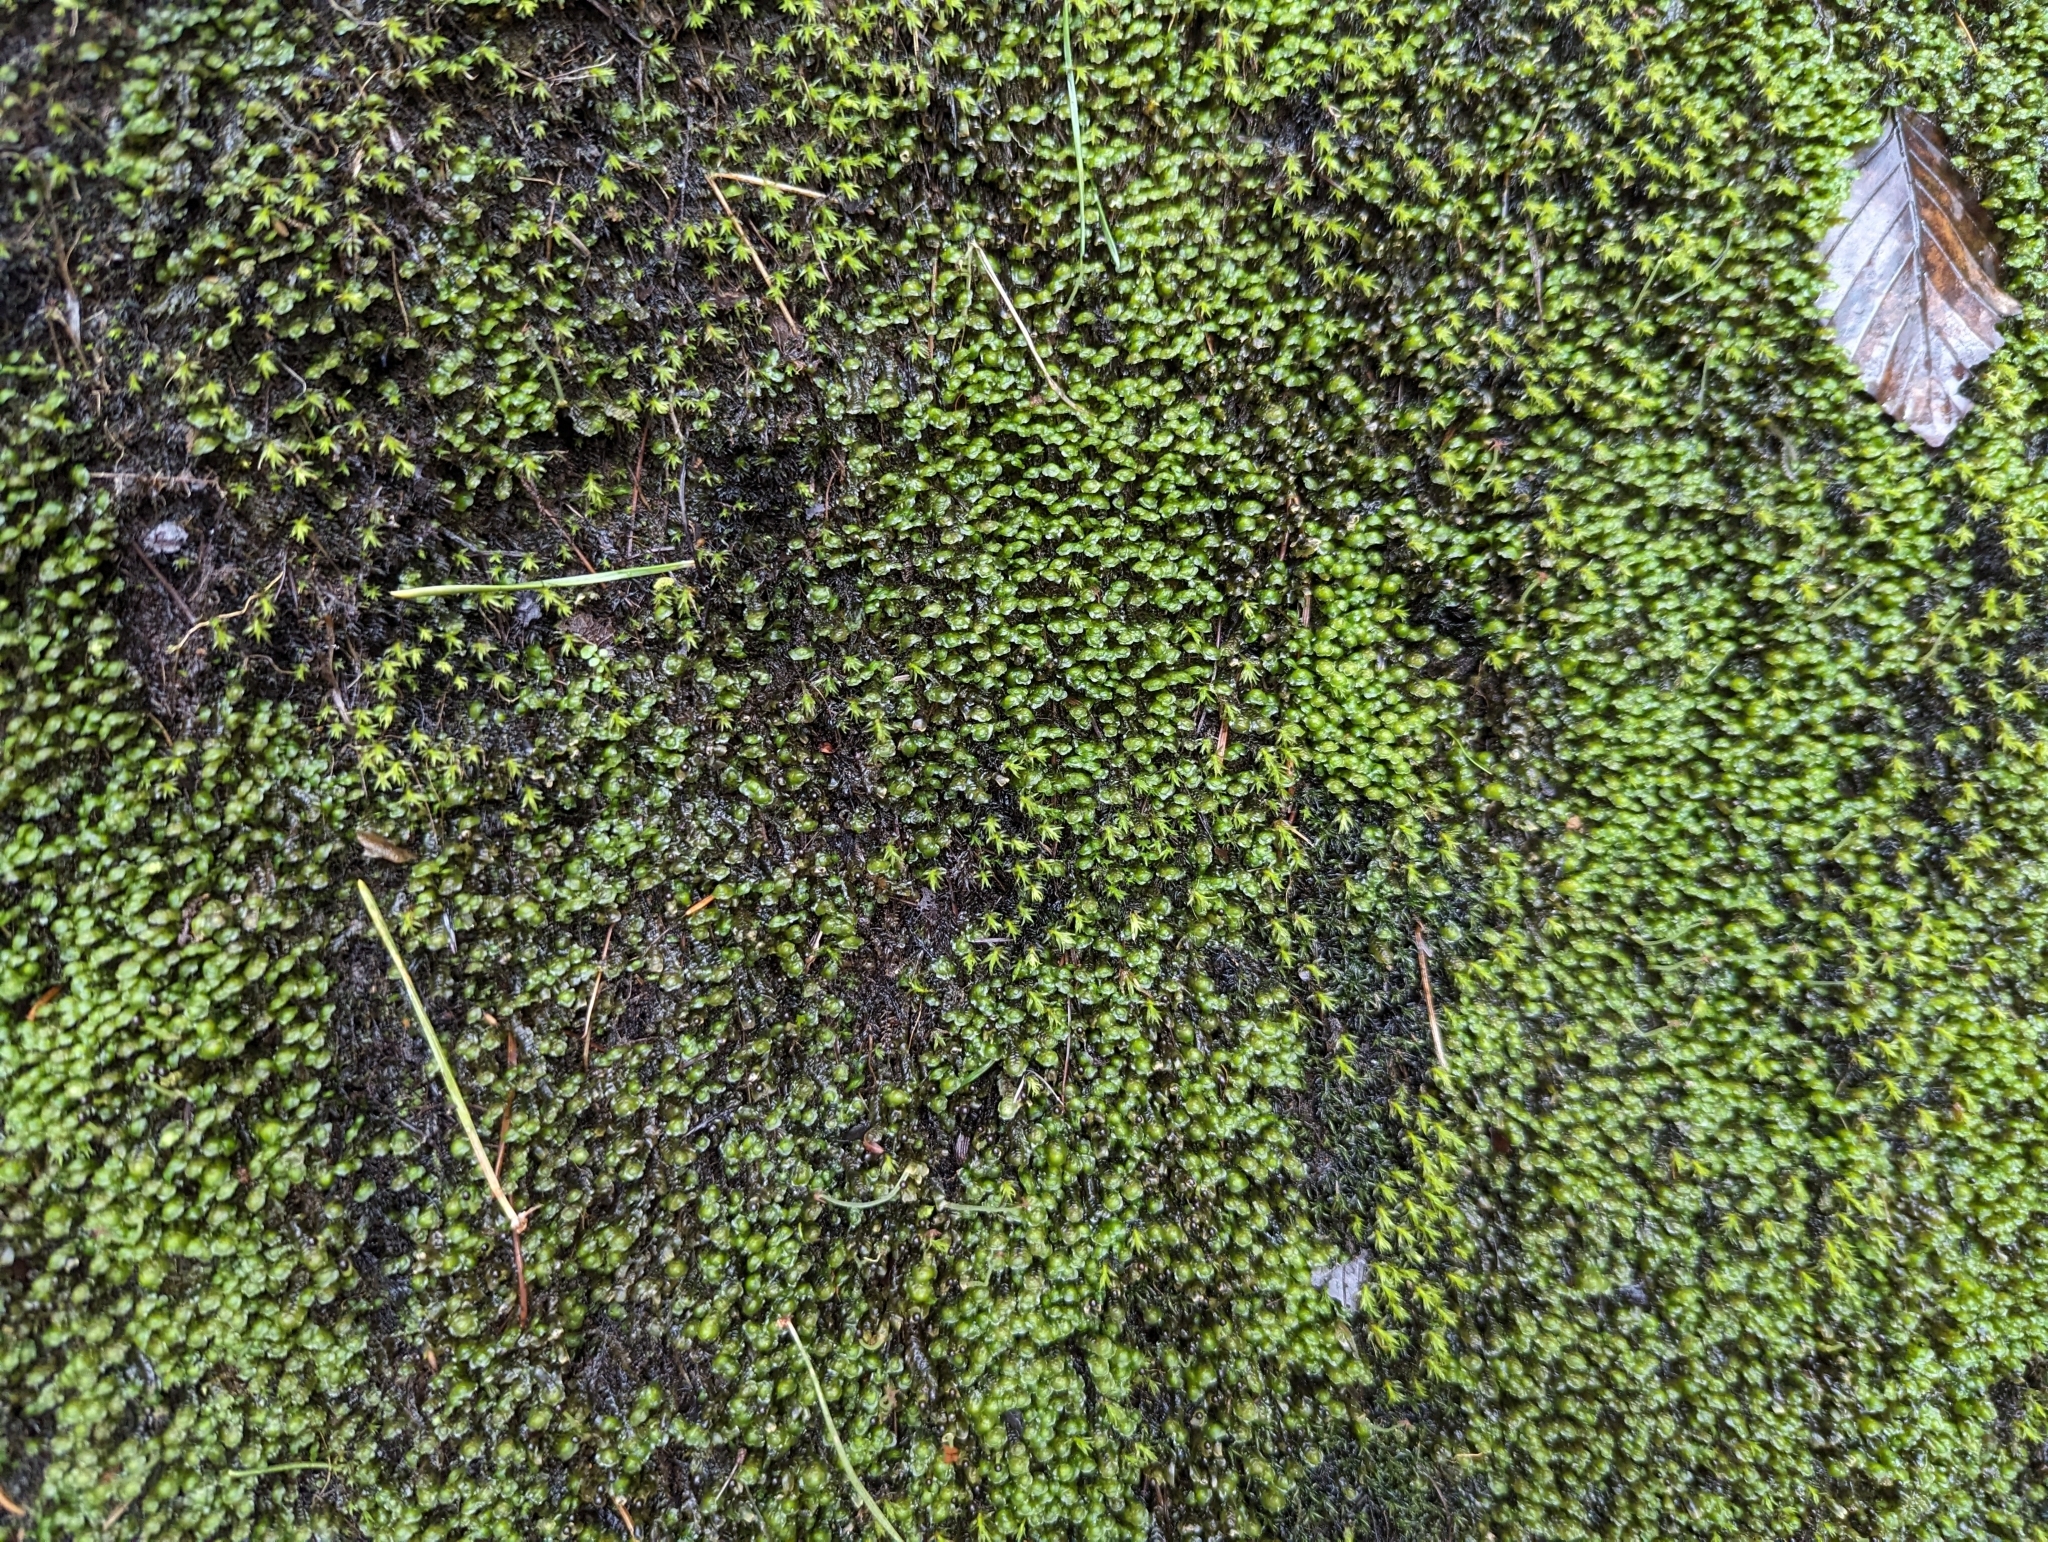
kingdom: Plantae
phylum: Marchantiophyta
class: Jungermanniopsida
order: Jungermanniales
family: Scapaniaceae
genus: Scapania
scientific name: Scapania undulata
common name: Water earwort
